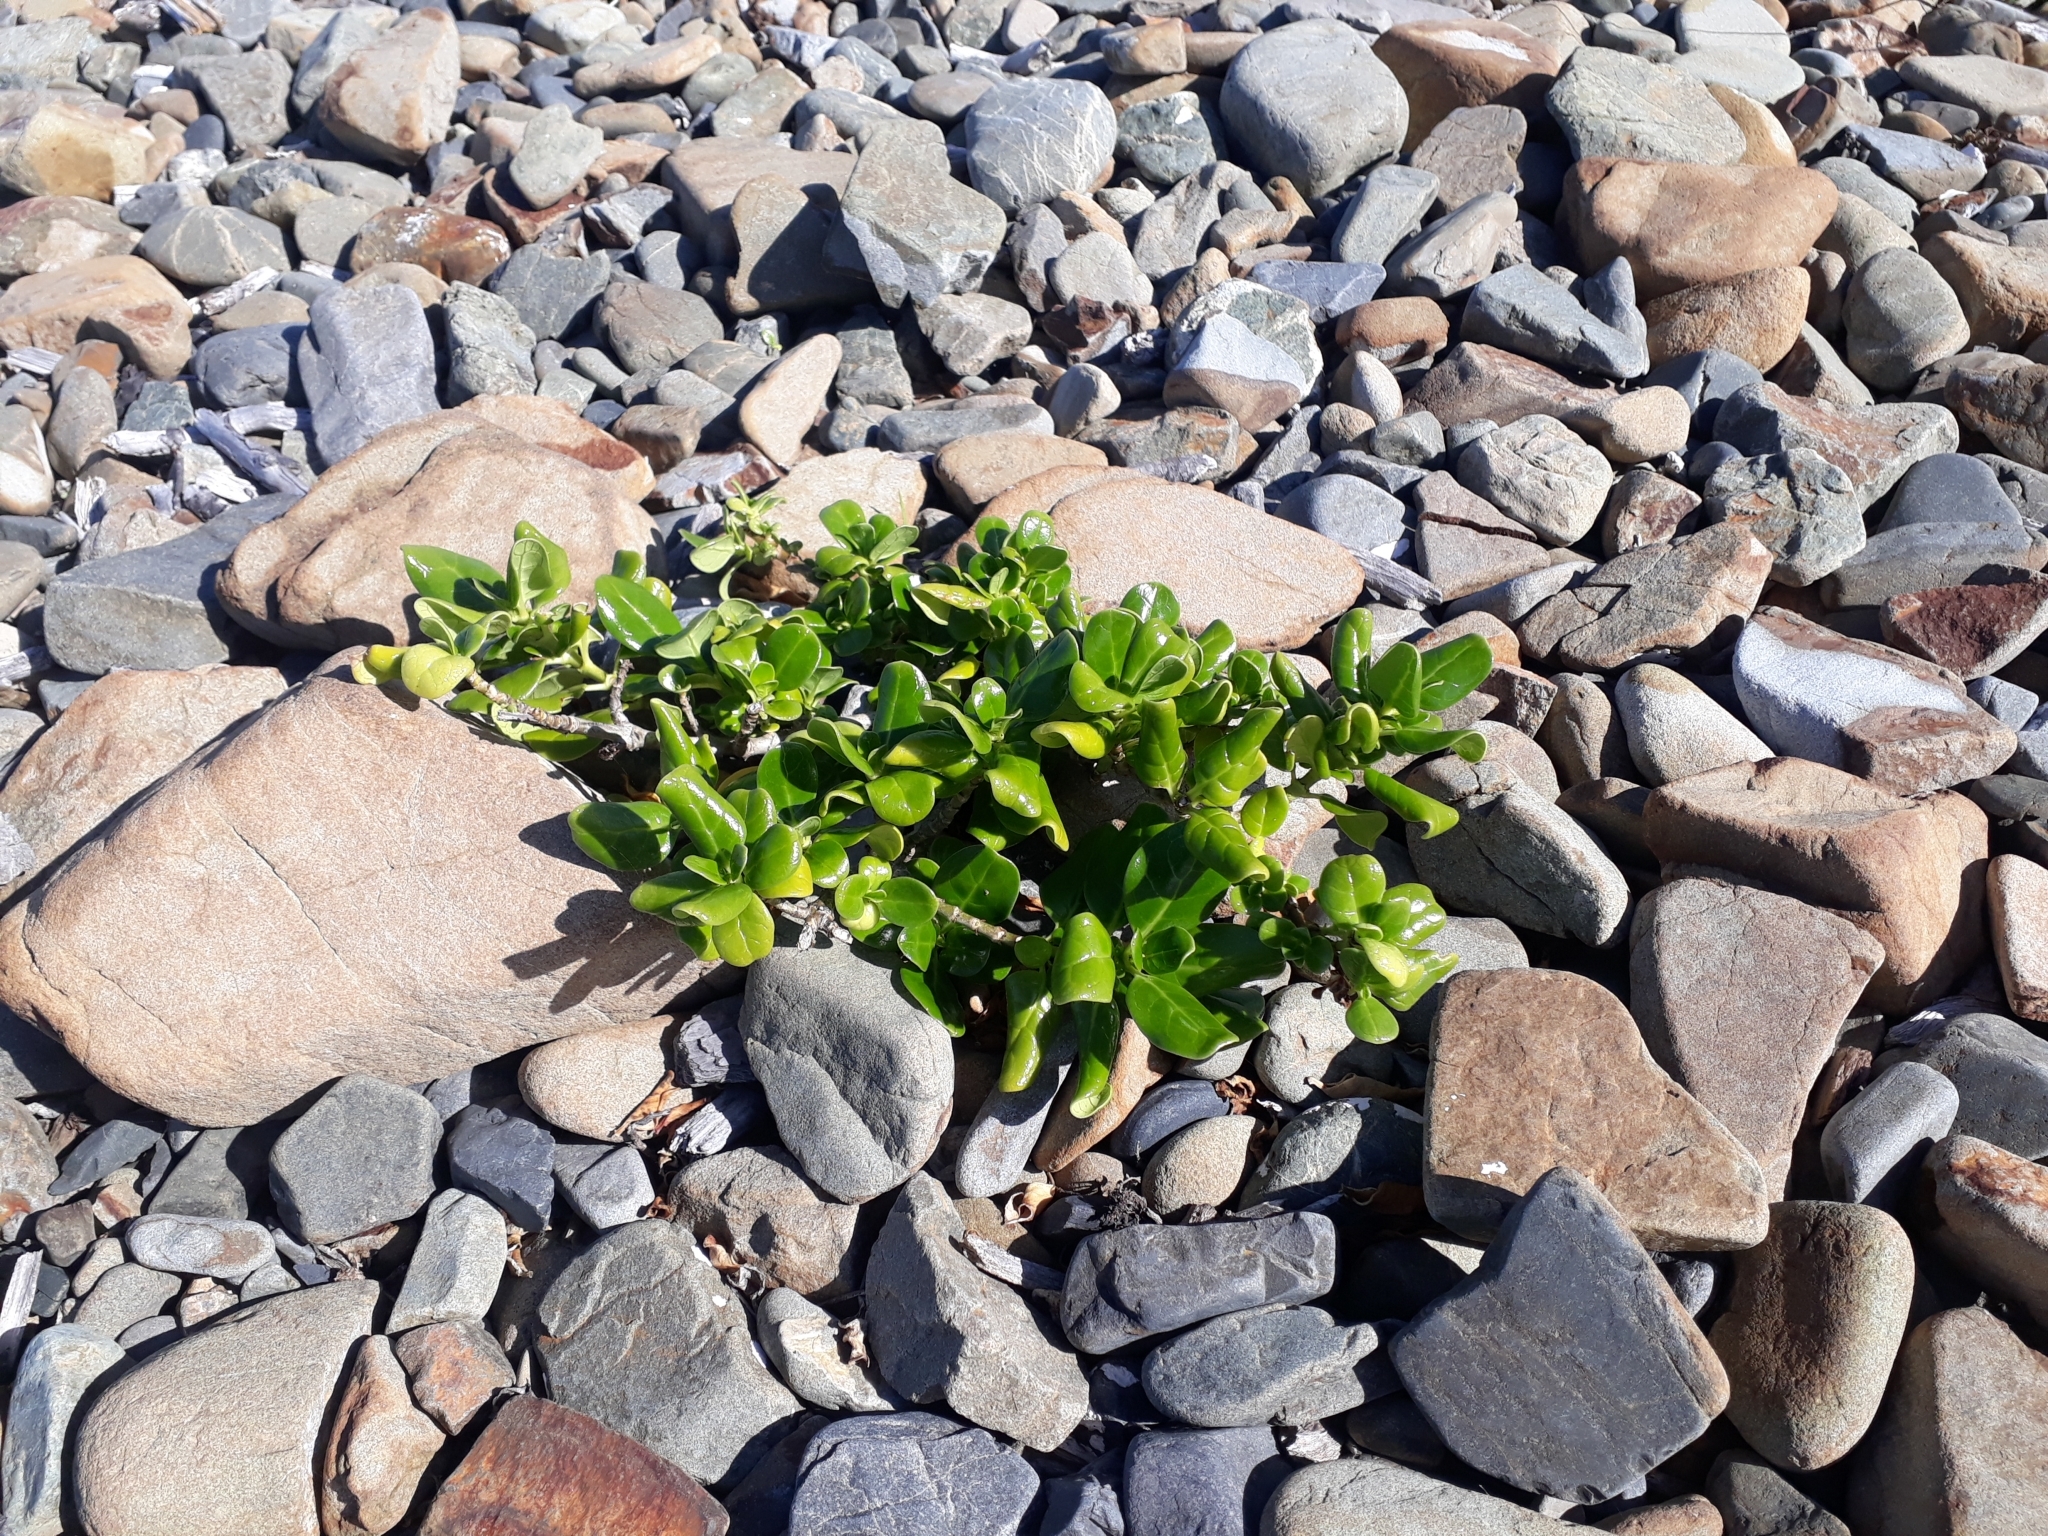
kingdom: Plantae
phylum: Tracheophyta
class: Magnoliopsida
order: Gentianales
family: Rubiaceae
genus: Coprosma
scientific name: Coprosma repens
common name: Tree bedstraw
